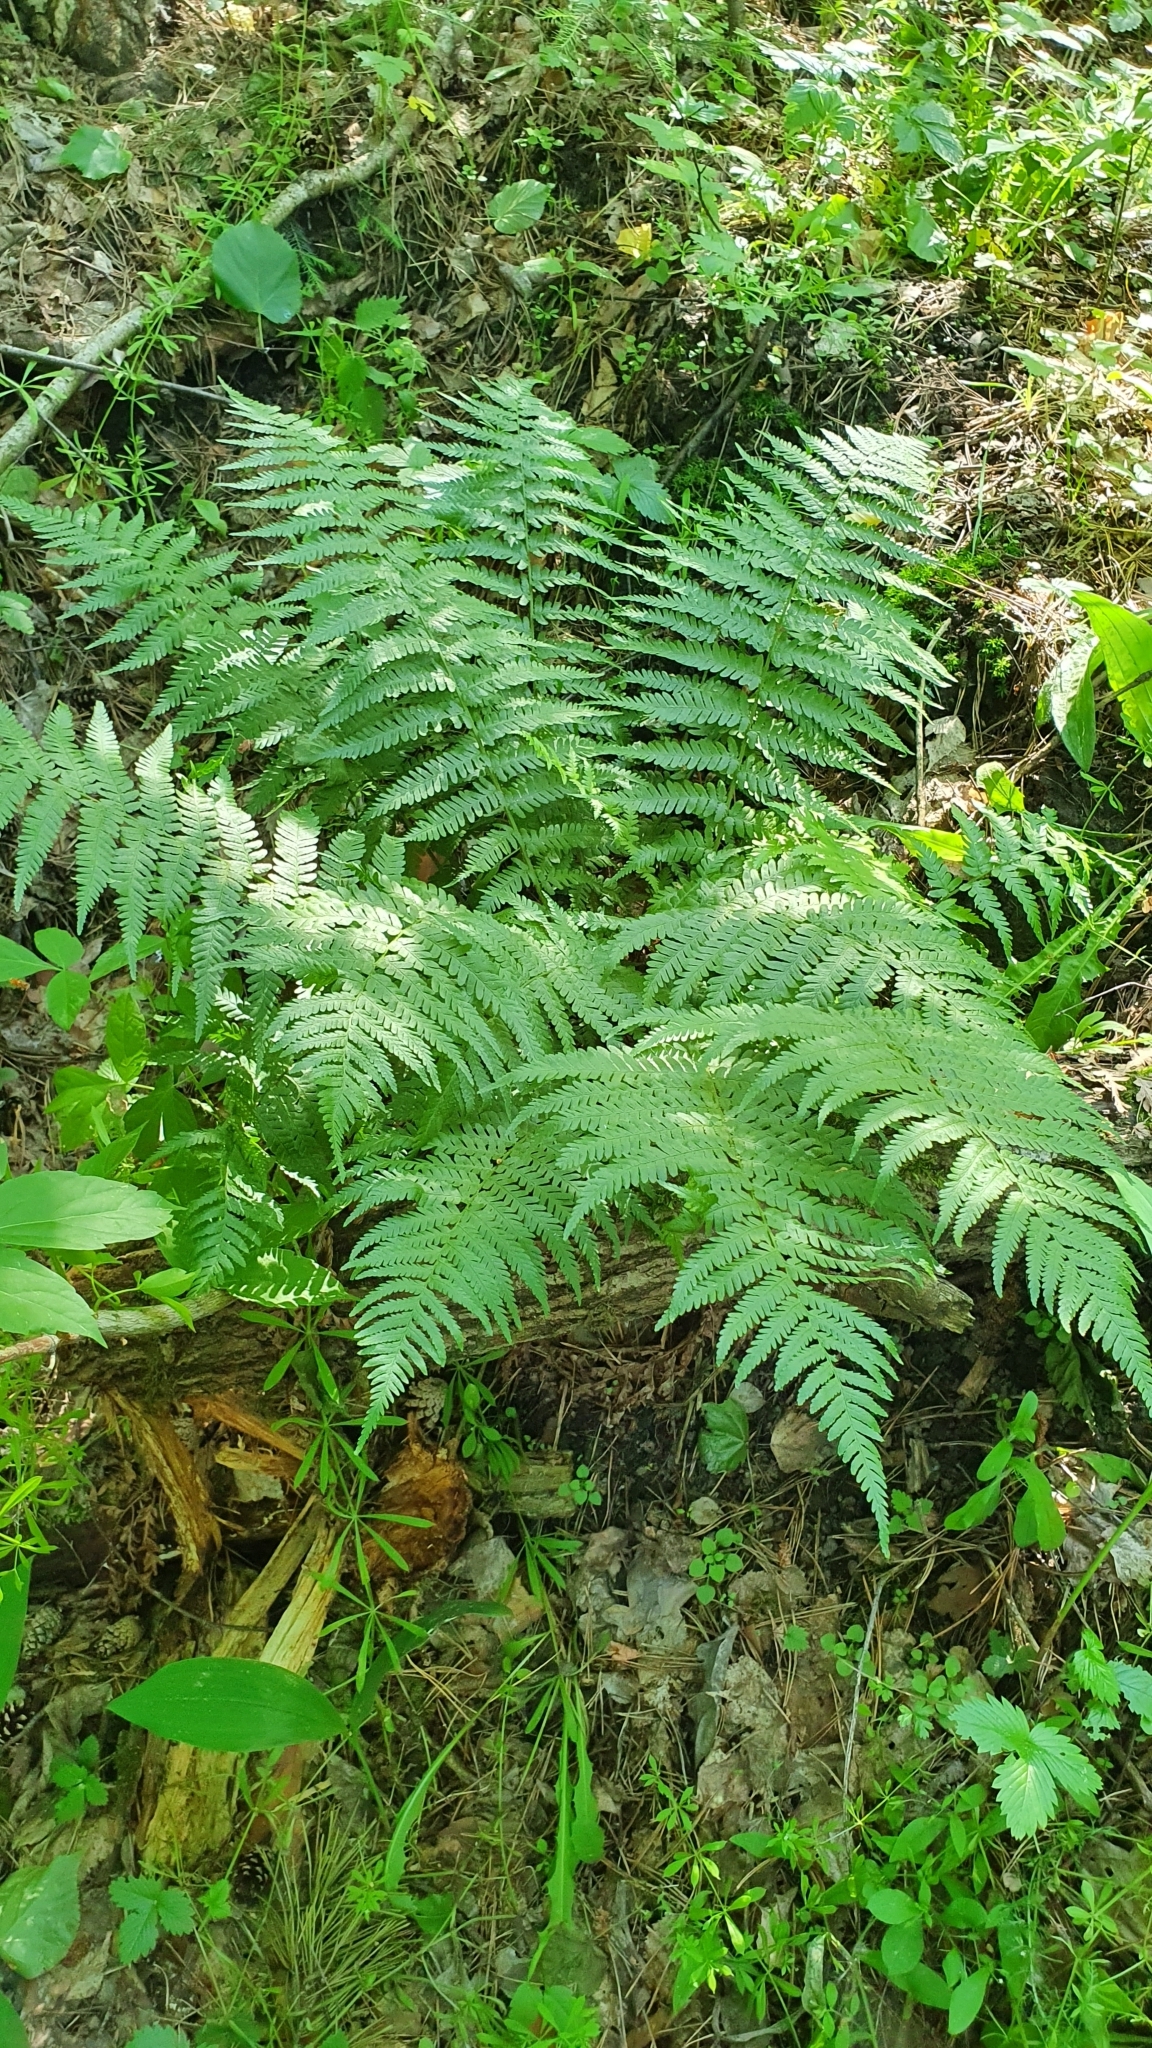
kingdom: Plantae
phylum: Tracheophyta
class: Polypodiopsida
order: Polypodiales
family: Dryopteridaceae
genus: Dryopteris
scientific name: Dryopteris filix-mas
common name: Male fern
